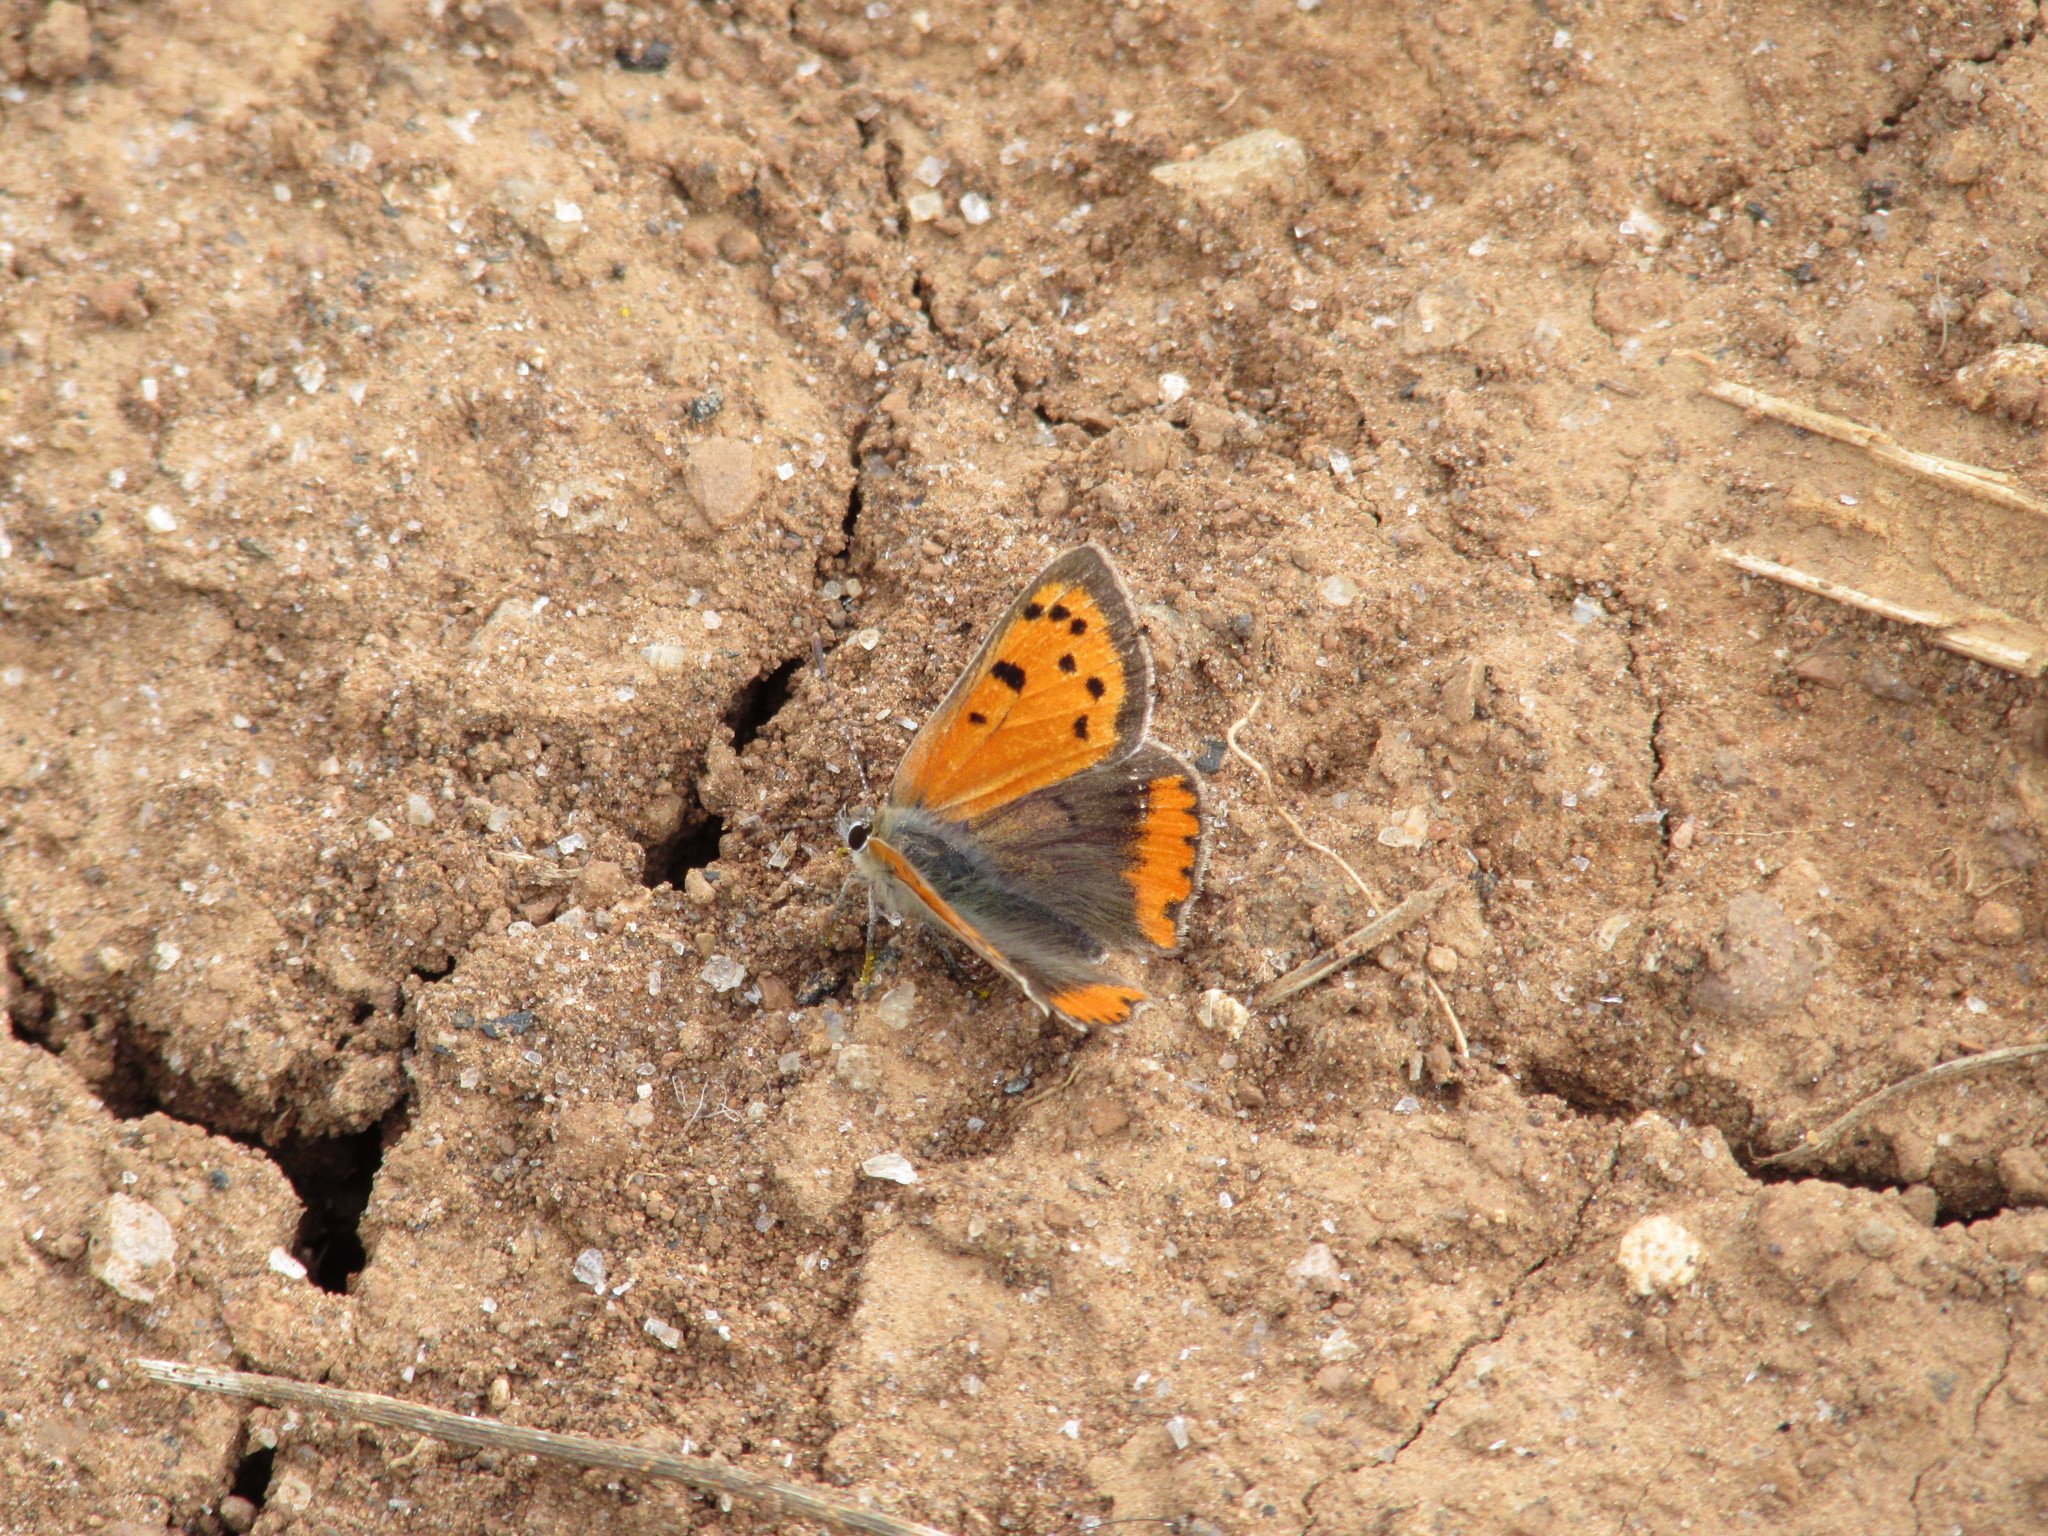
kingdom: Animalia
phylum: Arthropoda
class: Insecta
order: Lepidoptera
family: Lycaenidae
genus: Lycaena
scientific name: Lycaena phlaeas
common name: Small copper
